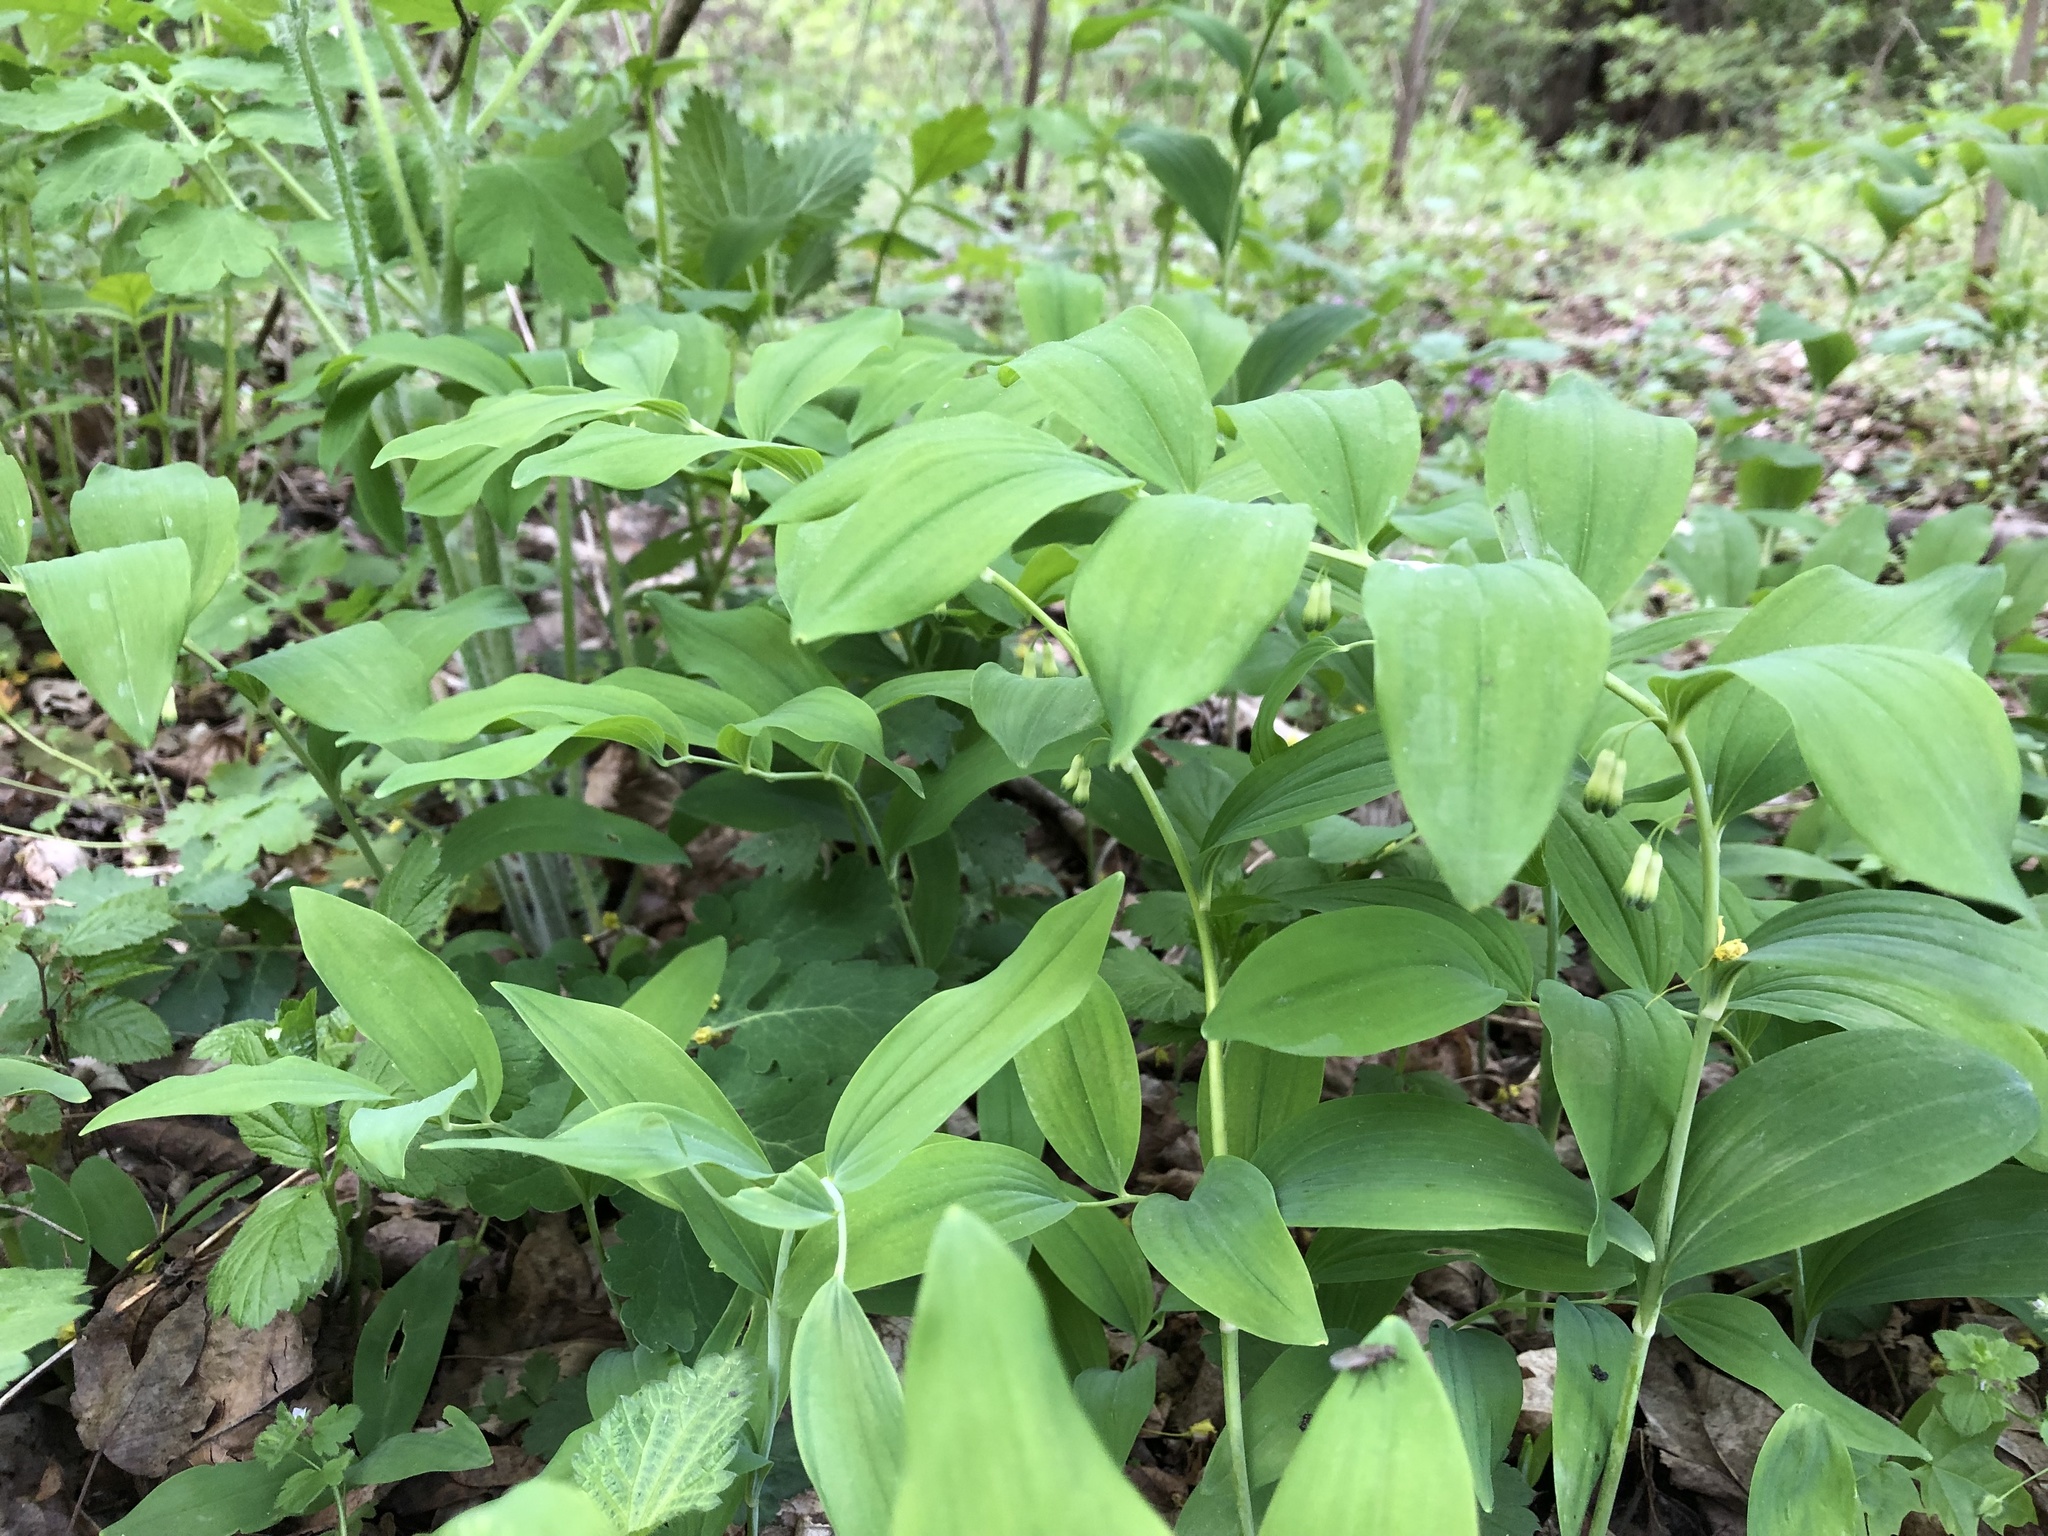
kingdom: Plantae
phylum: Tracheophyta
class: Liliopsida
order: Asparagales
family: Asparagaceae
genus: Polygonatum
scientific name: Polygonatum multiflorum
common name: Solomon's-seal
